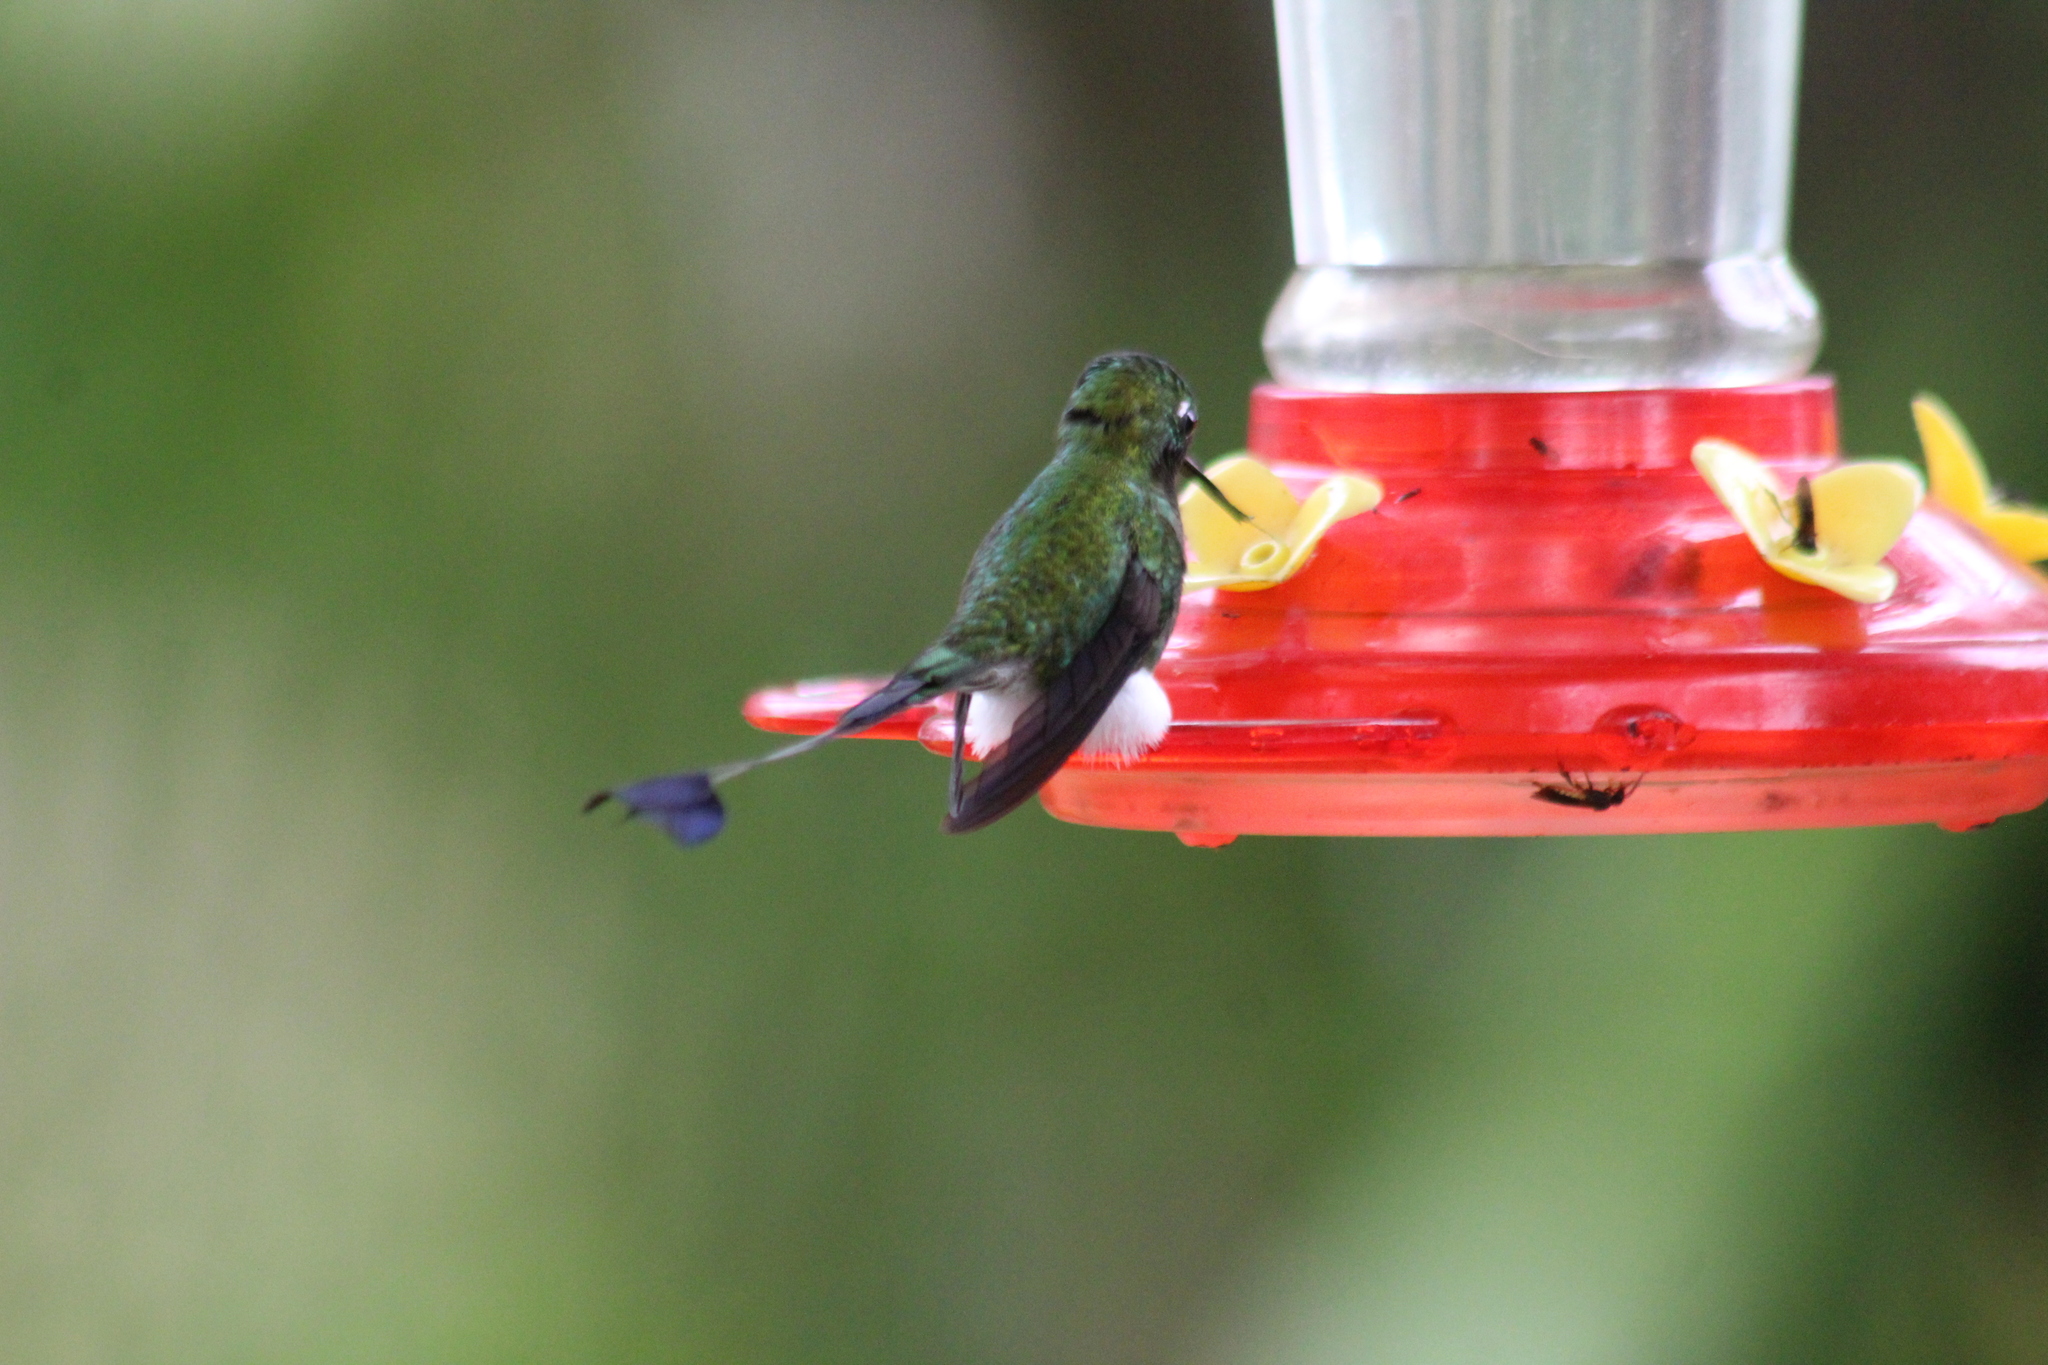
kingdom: Animalia
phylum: Chordata
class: Aves
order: Apodiformes
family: Trochilidae
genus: Ocreatus
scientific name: Ocreatus underwoodii
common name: Booted racket-tail
